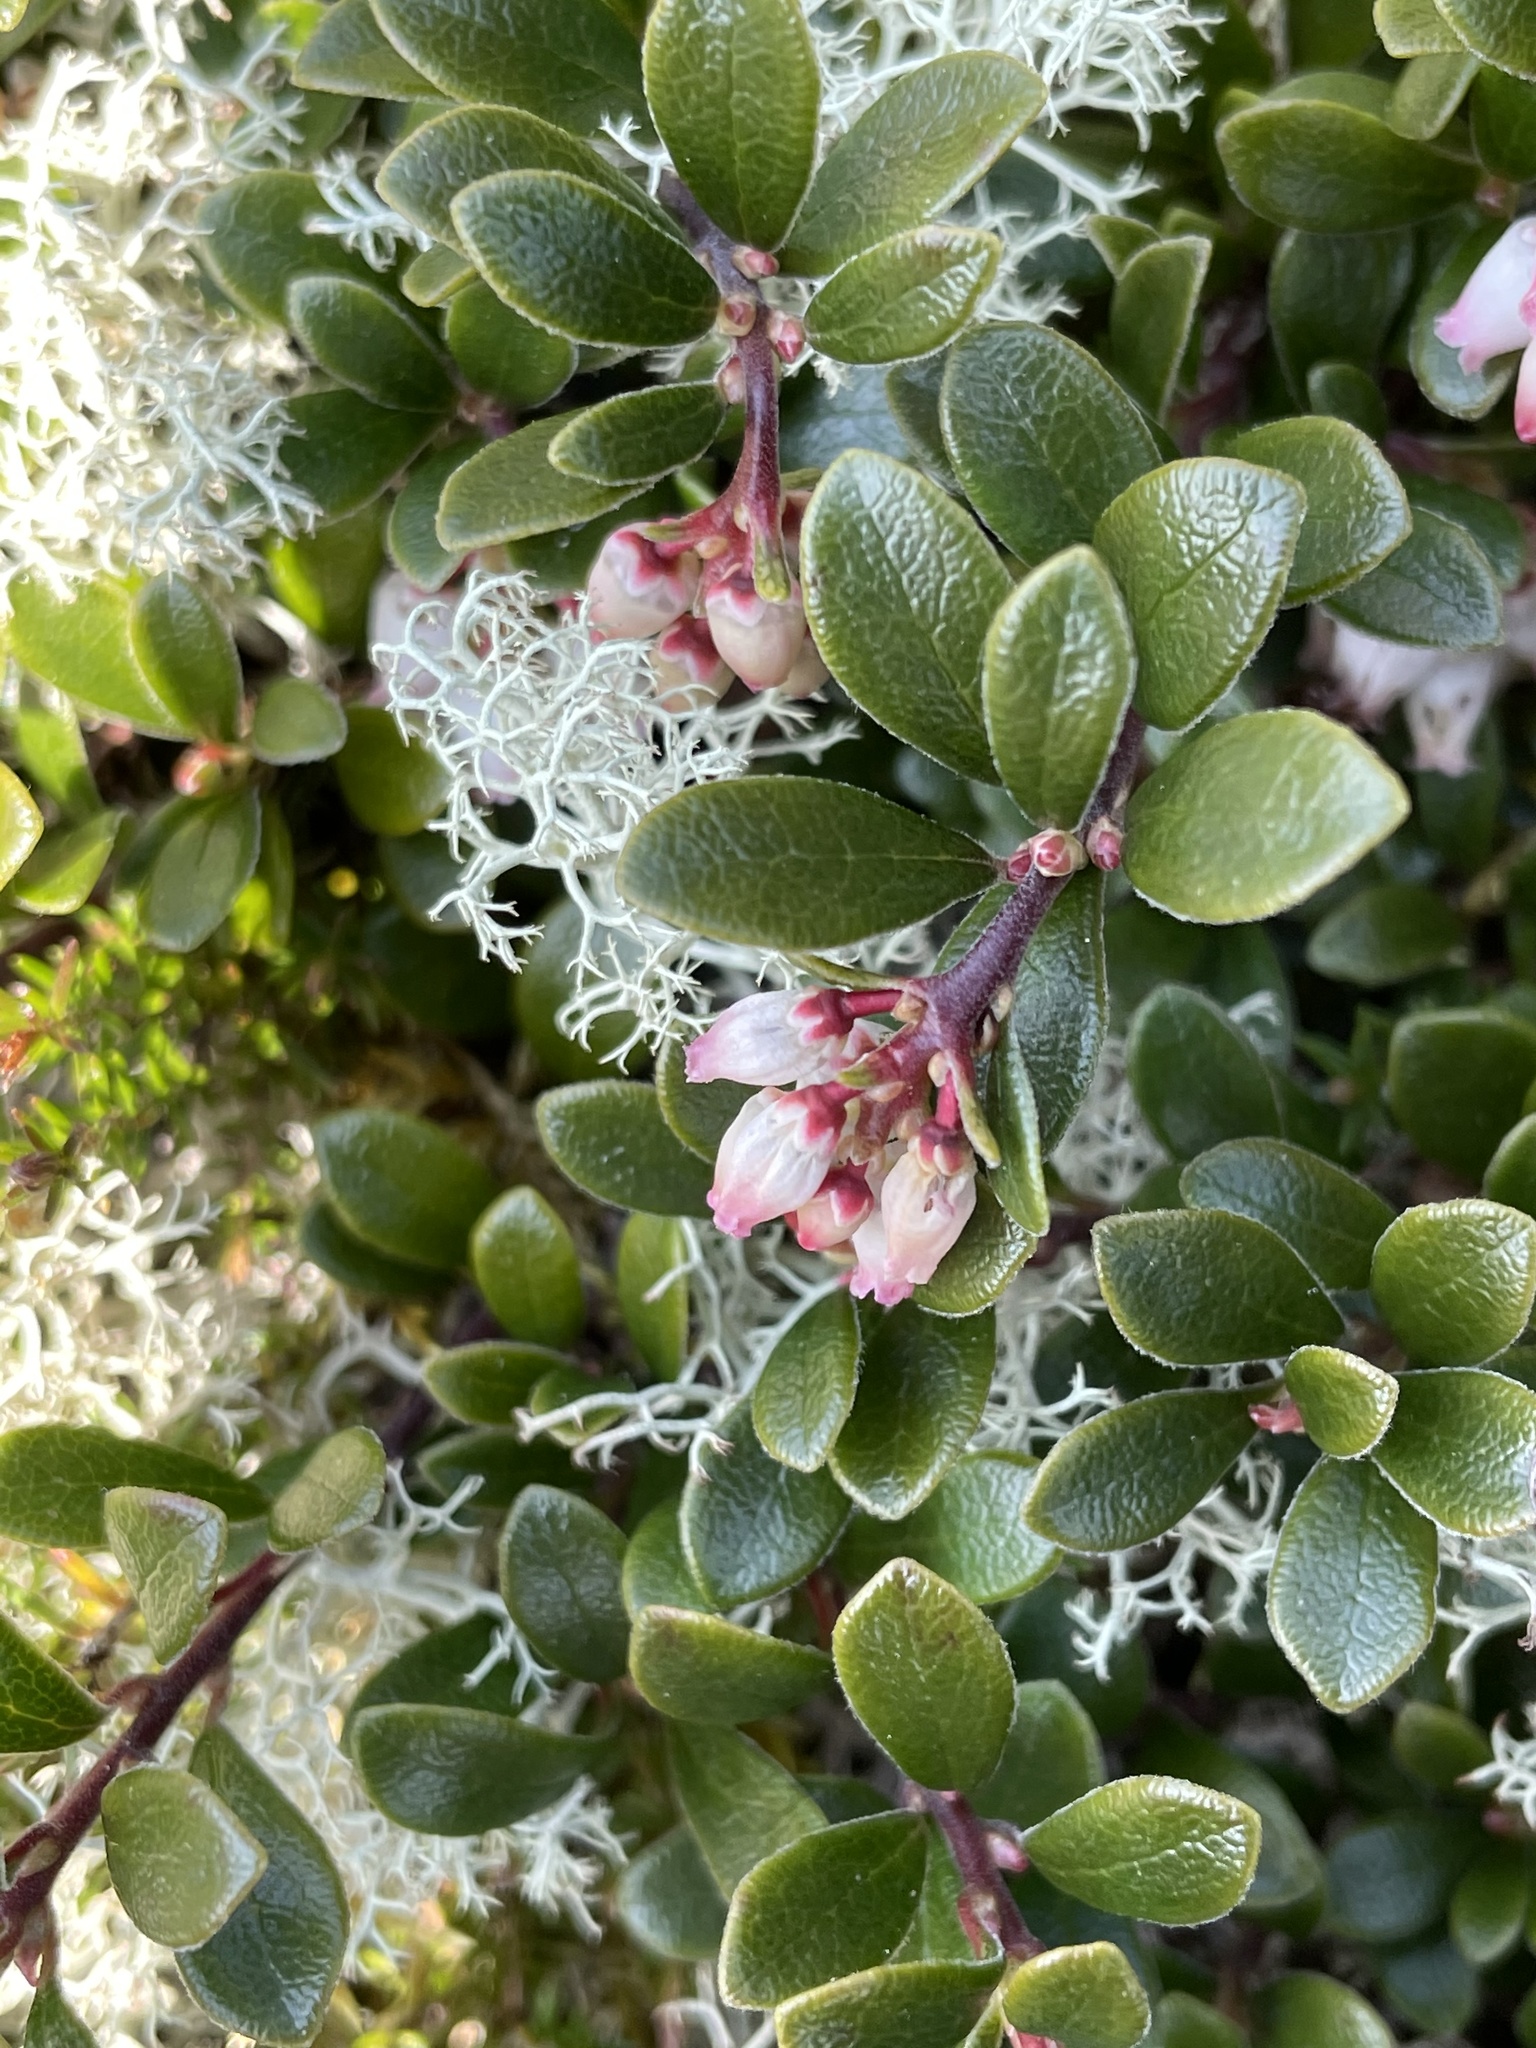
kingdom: Plantae
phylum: Tracheophyta
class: Magnoliopsida
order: Ericales
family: Ericaceae
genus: Arctostaphylos
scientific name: Arctostaphylos uva-ursi
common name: Bearberry
